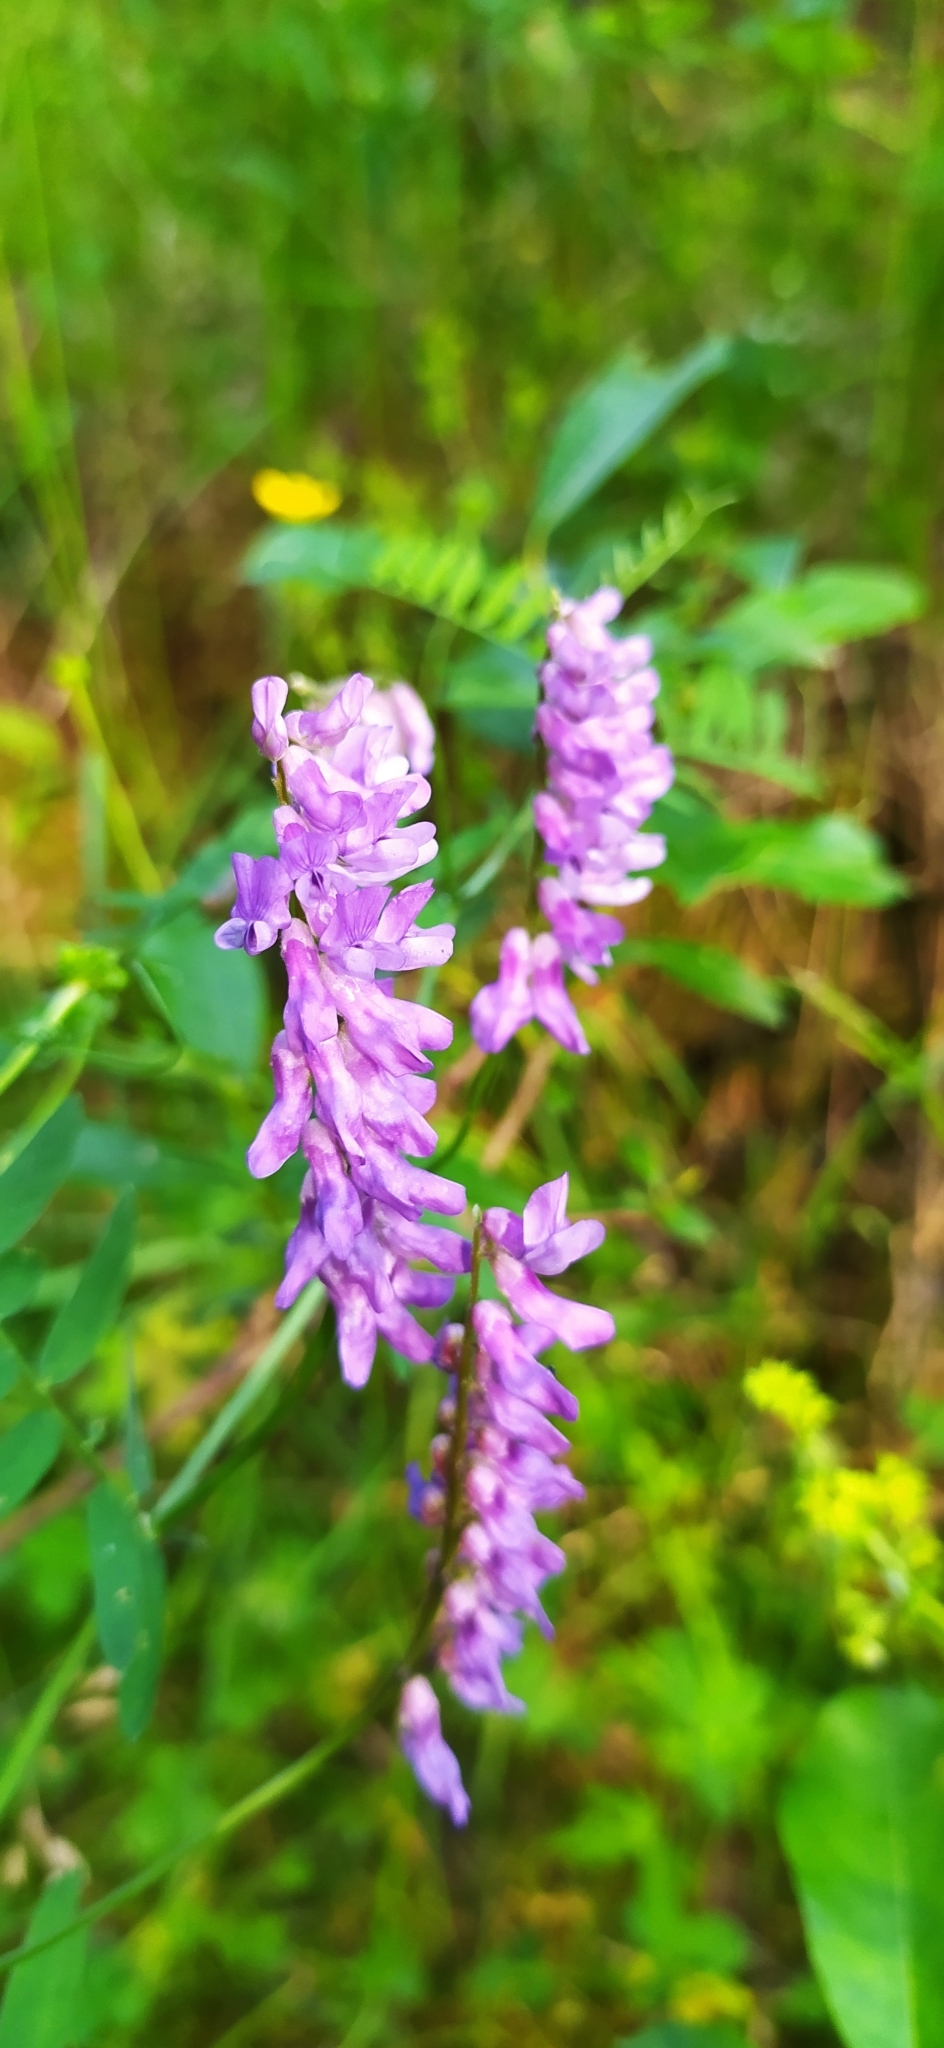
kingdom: Plantae
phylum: Tracheophyta
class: Magnoliopsida
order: Fabales
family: Fabaceae
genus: Vicia
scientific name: Vicia cracca
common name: Bird vetch
